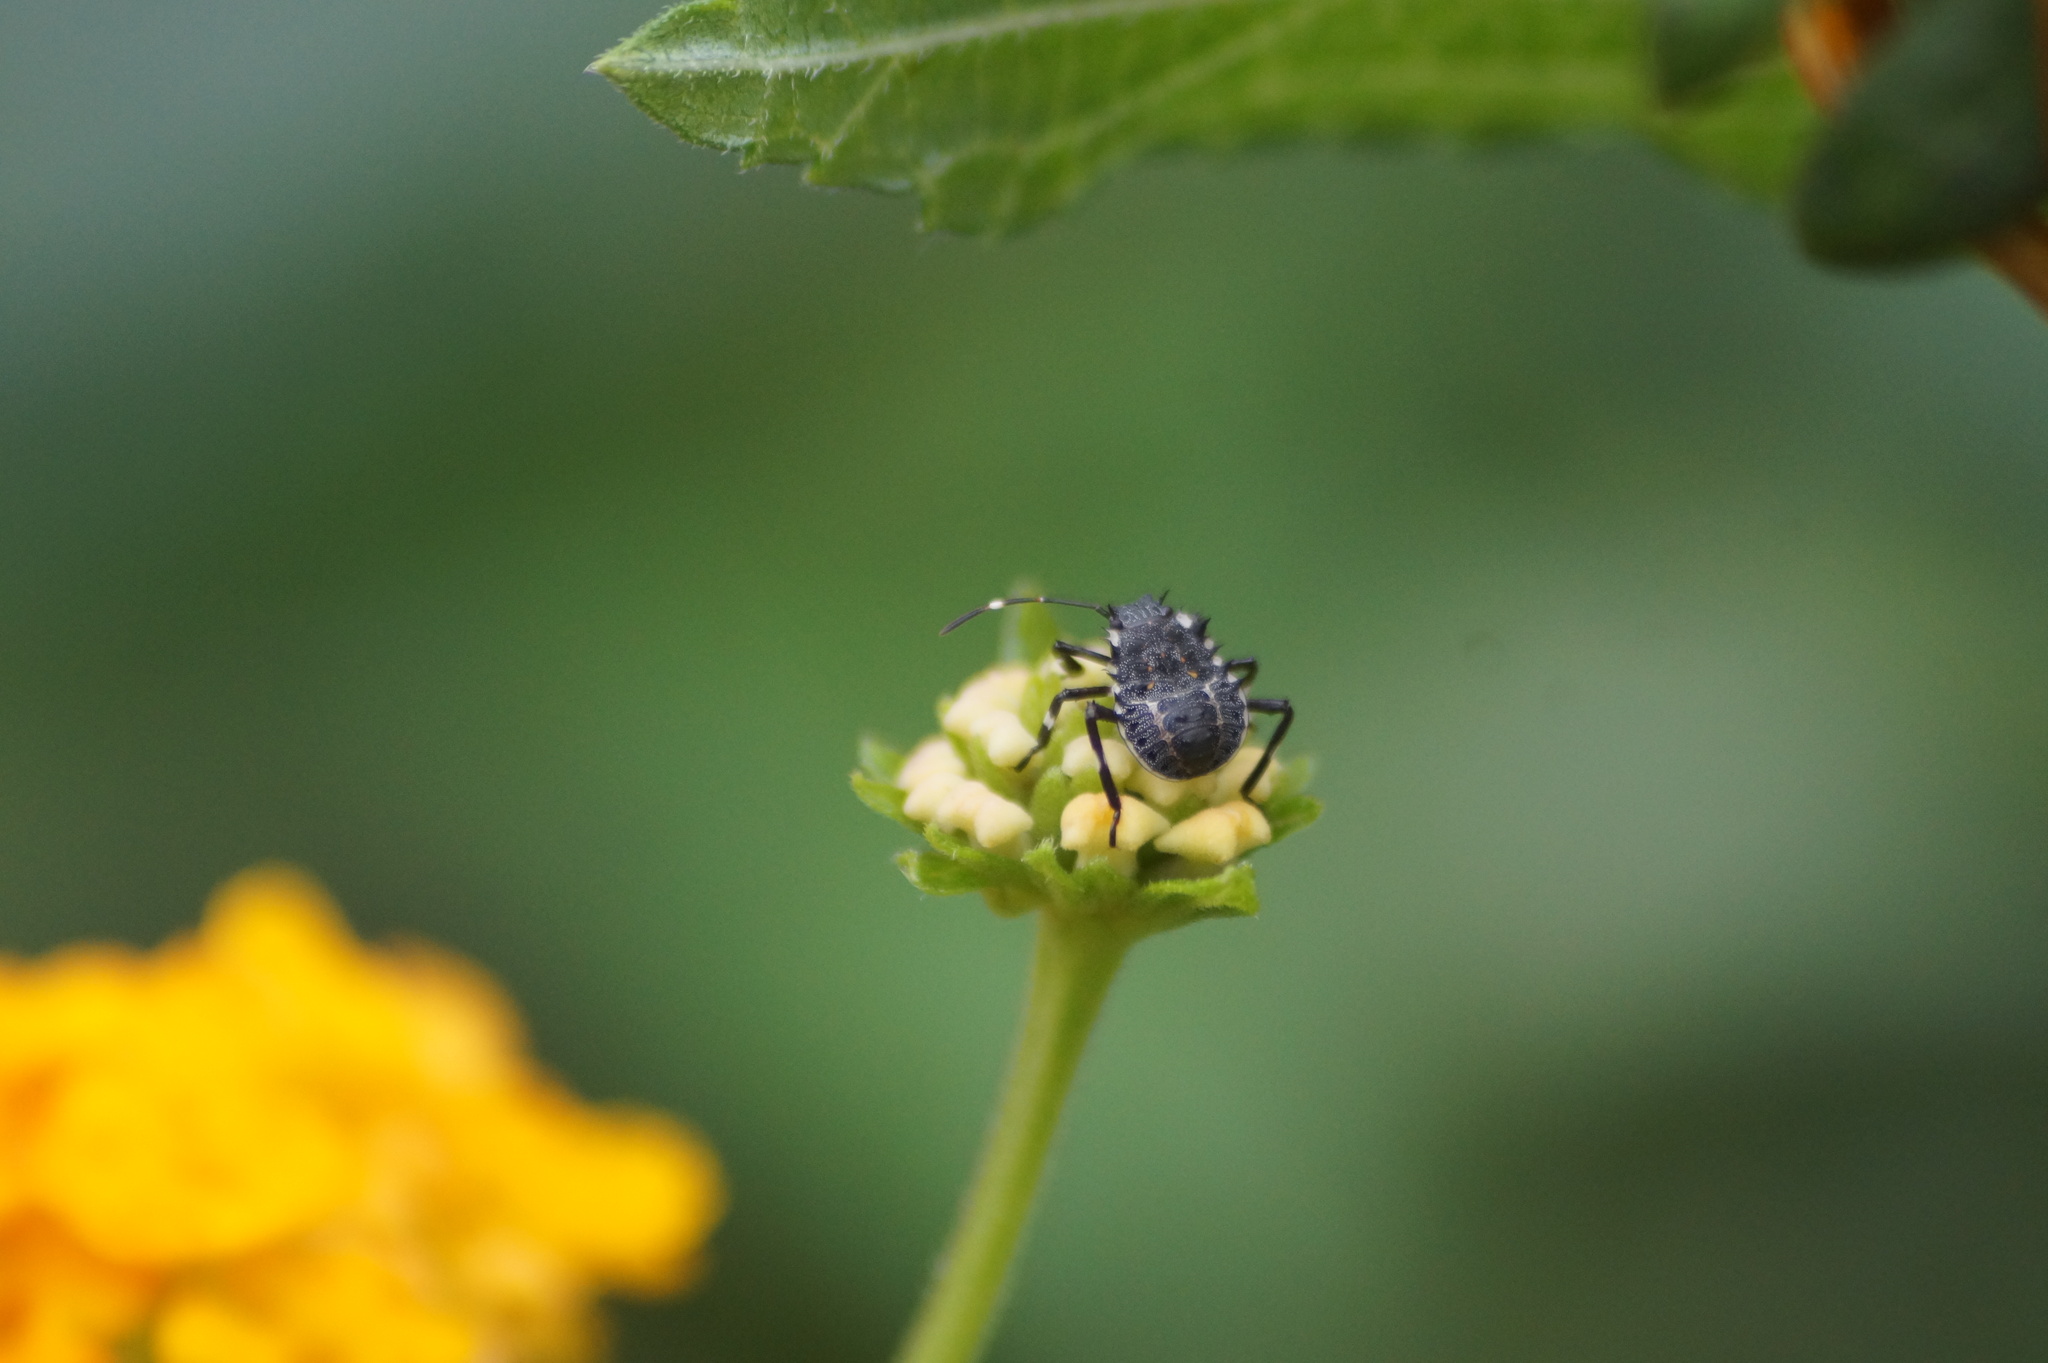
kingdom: Animalia
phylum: Arthropoda
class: Insecta
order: Hemiptera
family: Pentatomidae
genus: Halyomorpha
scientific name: Halyomorpha halys
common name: Brown marmorated stink bug
